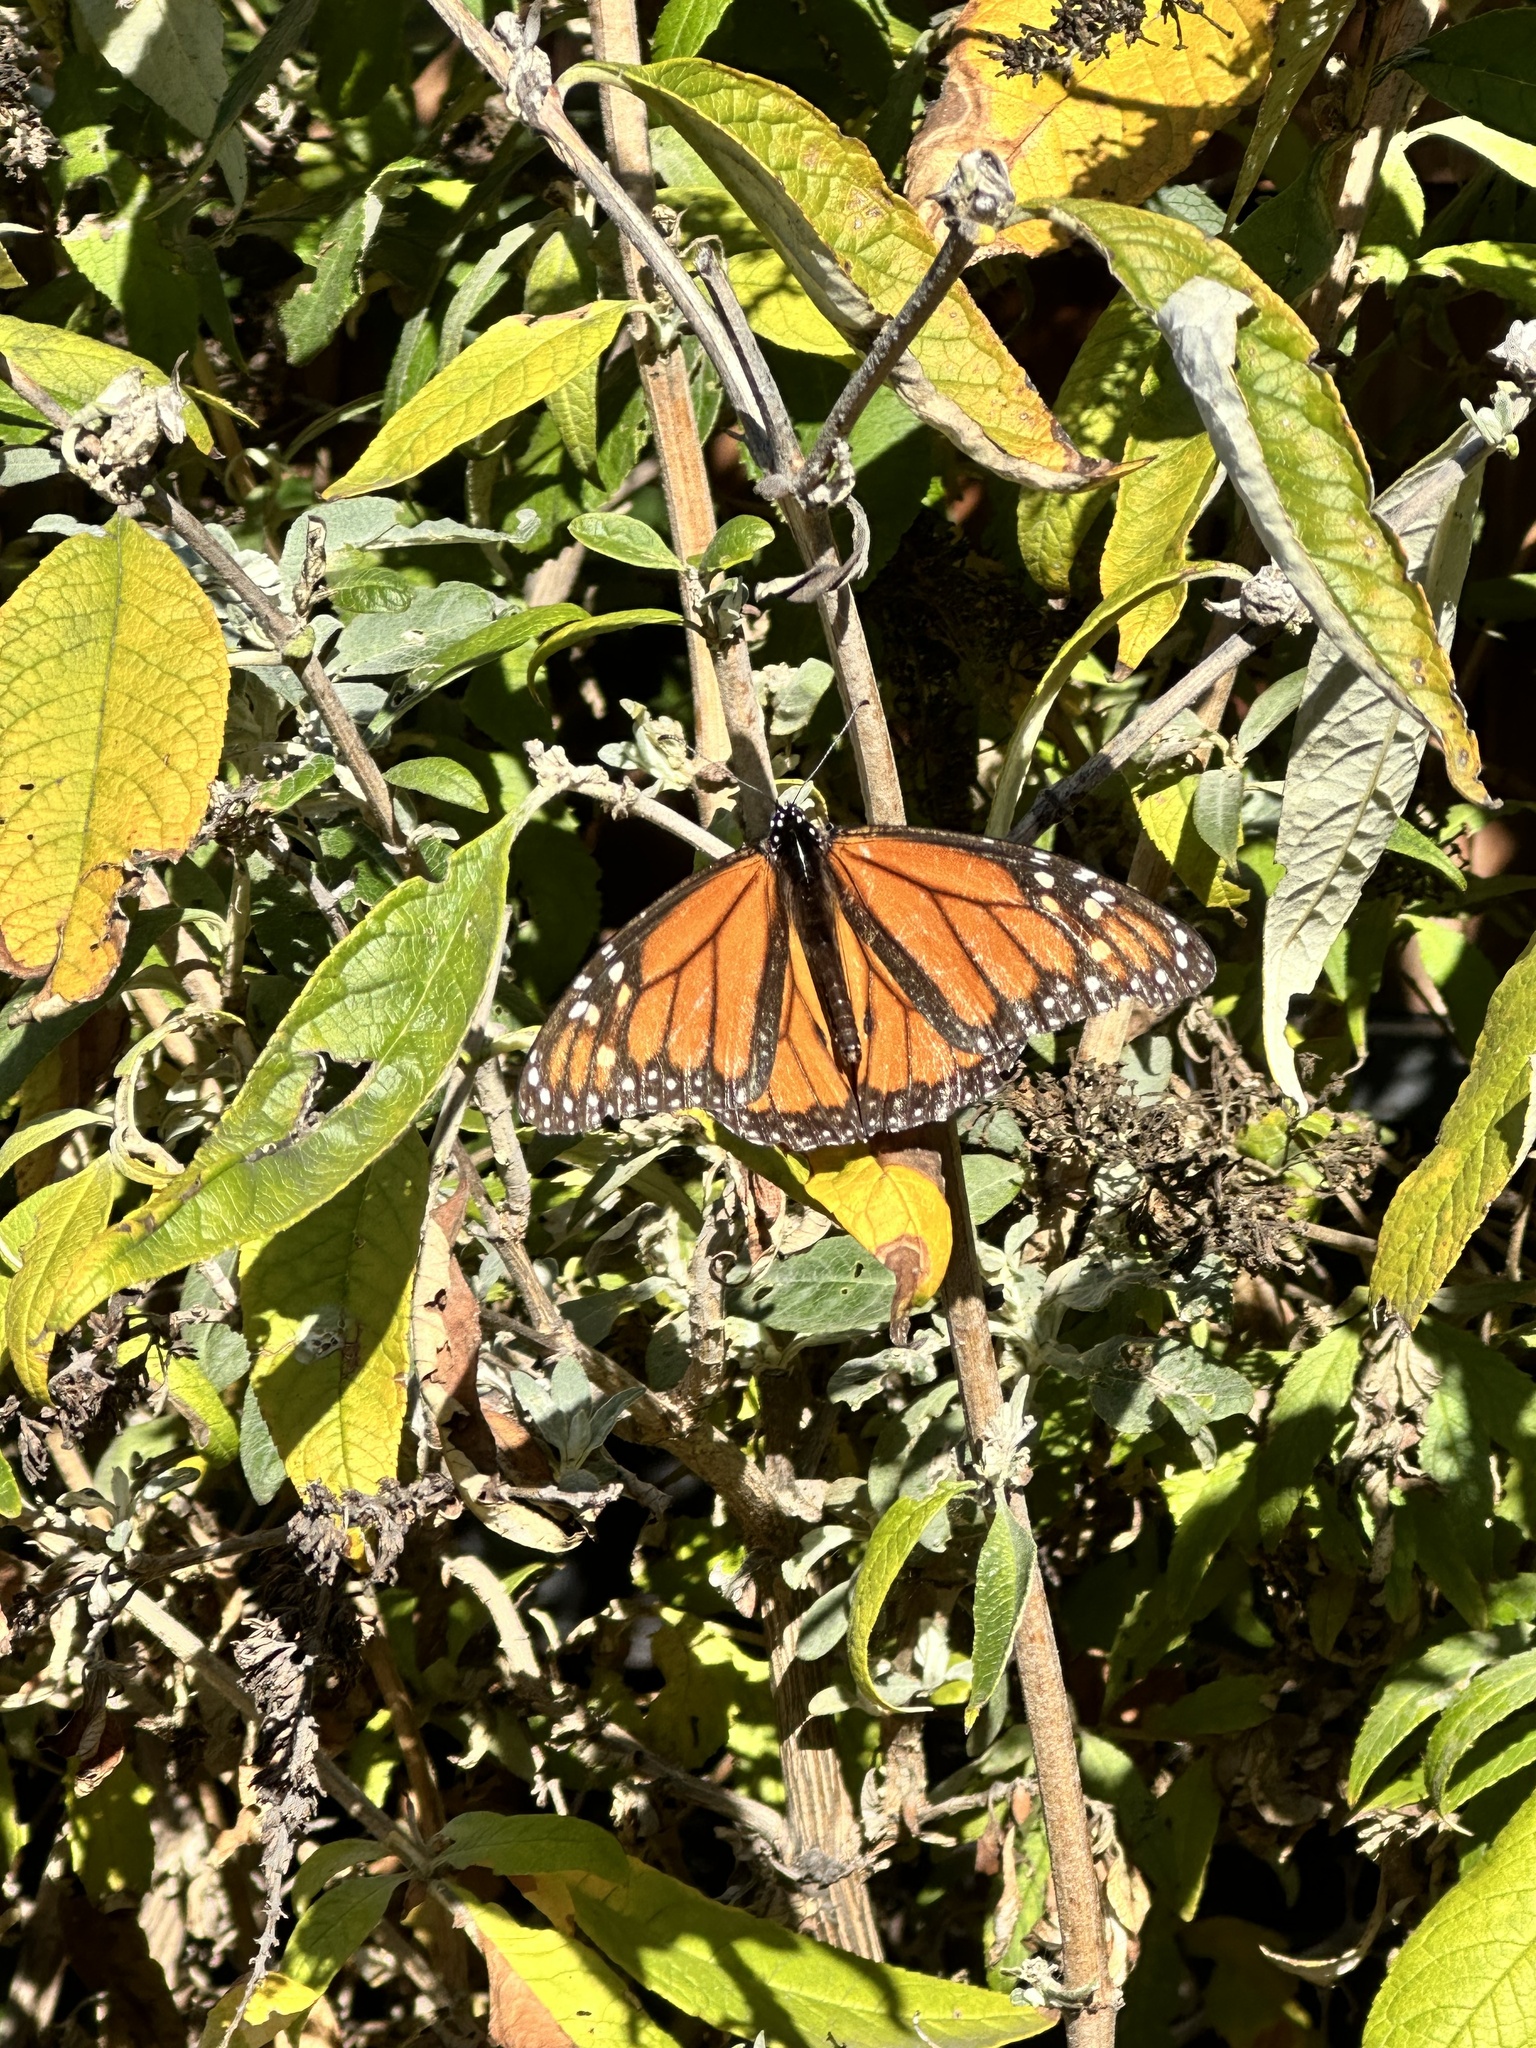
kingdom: Animalia
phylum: Arthropoda
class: Insecta
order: Lepidoptera
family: Nymphalidae
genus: Danaus
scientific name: Danaus plexippus
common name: Monarch
